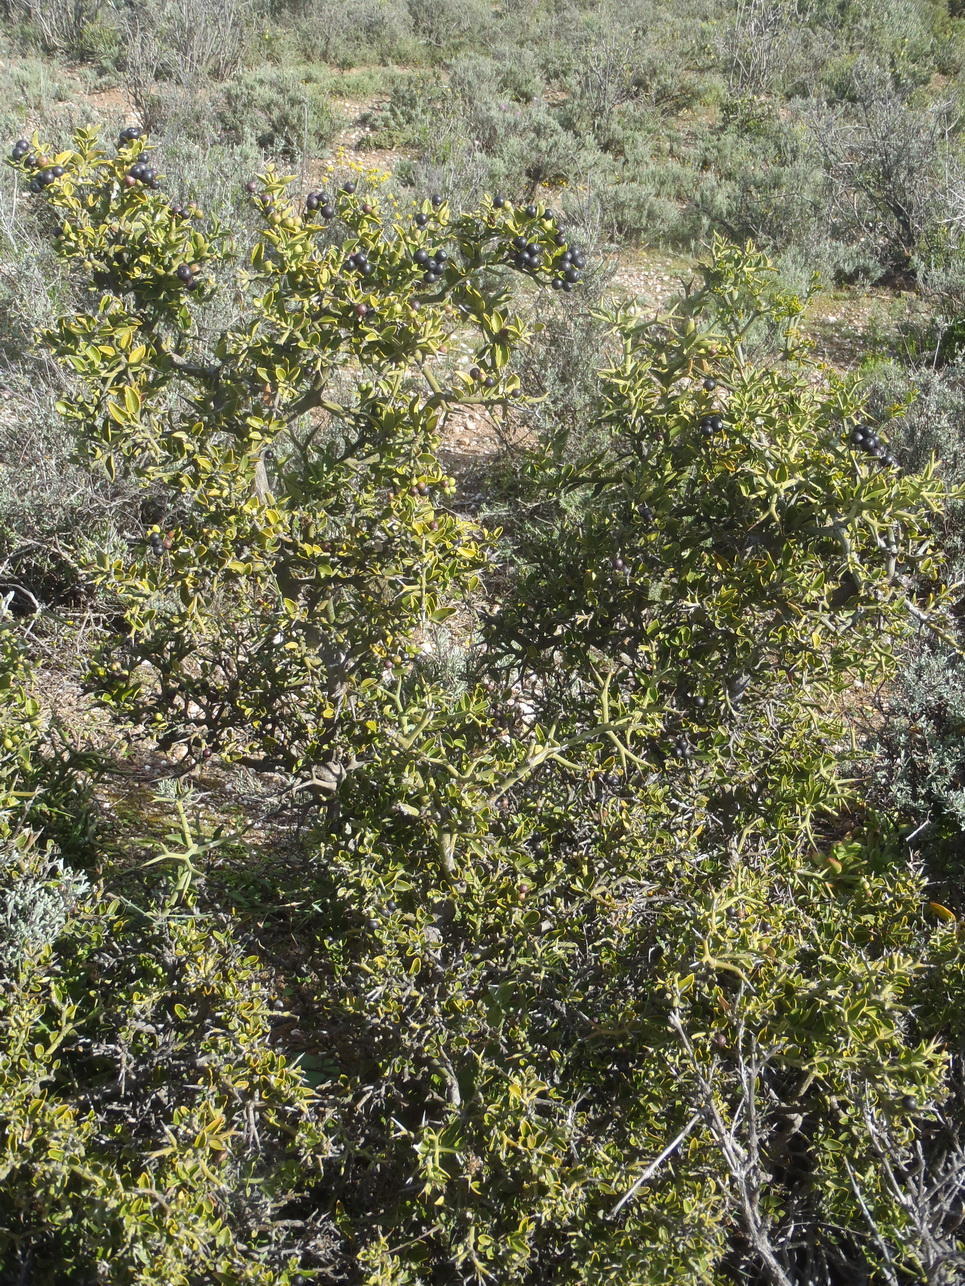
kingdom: Plantae
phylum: Tracheophyta
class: Magnoliopsida
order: Gentianales
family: Apocynaceae
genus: Carissa
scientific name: Carissa haematocarpa
